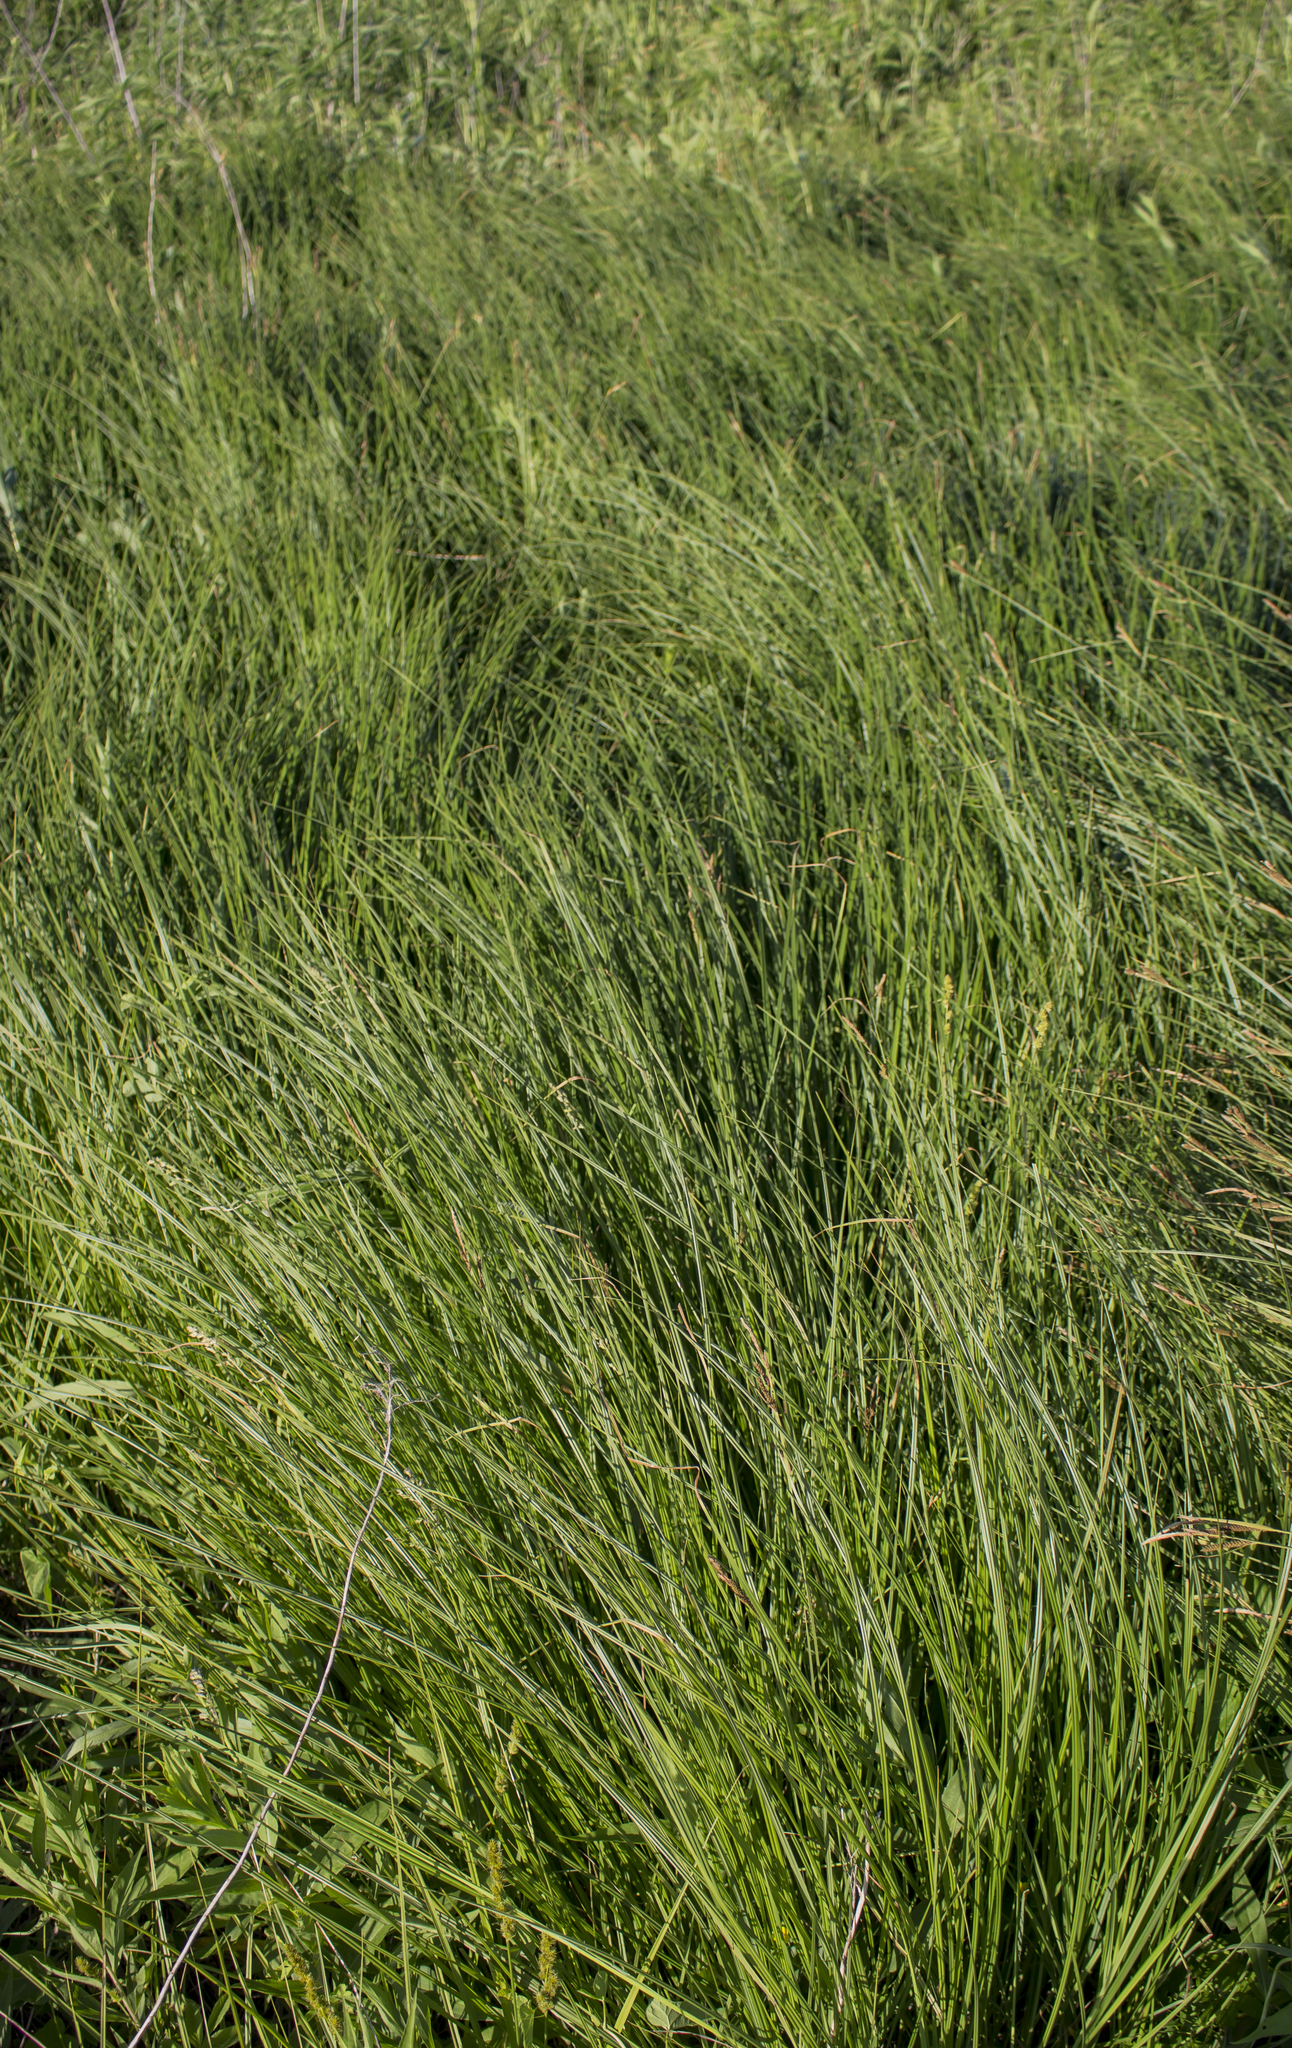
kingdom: Plantae
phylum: Tracheophyta
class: Liliopsida
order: Poales
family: Cyperaceae
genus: Carex
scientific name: Carex haydenii
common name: Hayden's sedge
